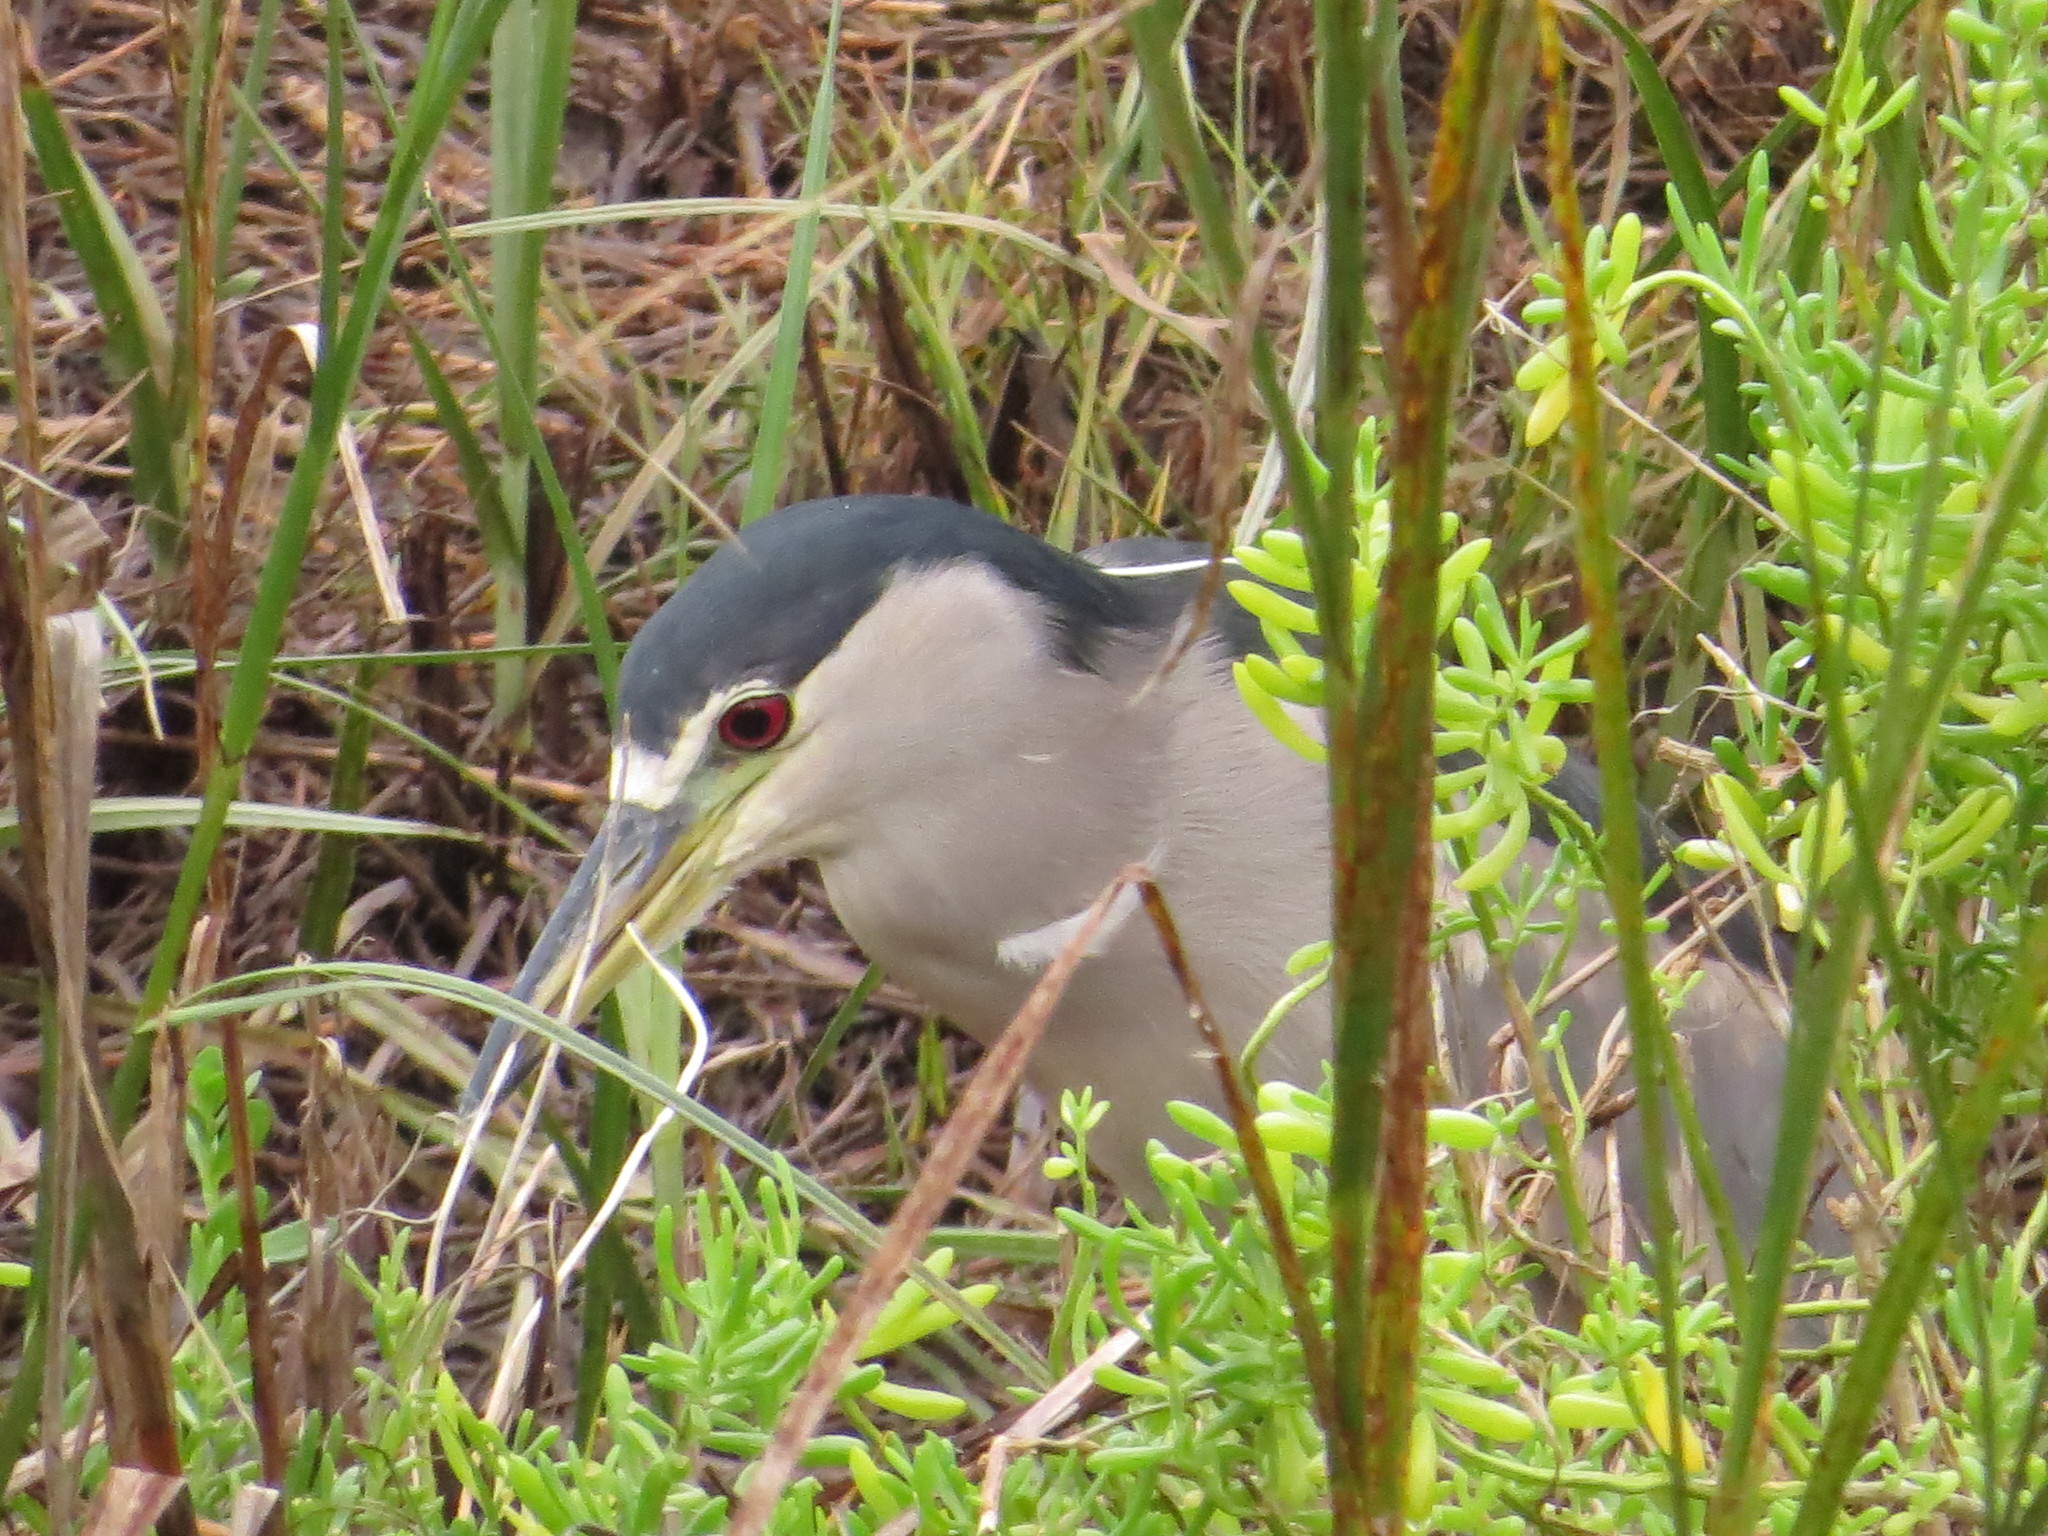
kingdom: Animalia
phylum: Chordata
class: Aves
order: Pelecaniformes
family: Ardeidae
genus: Nycticorax
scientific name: Nycticorax nycticorax
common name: Black-crowned night heron
